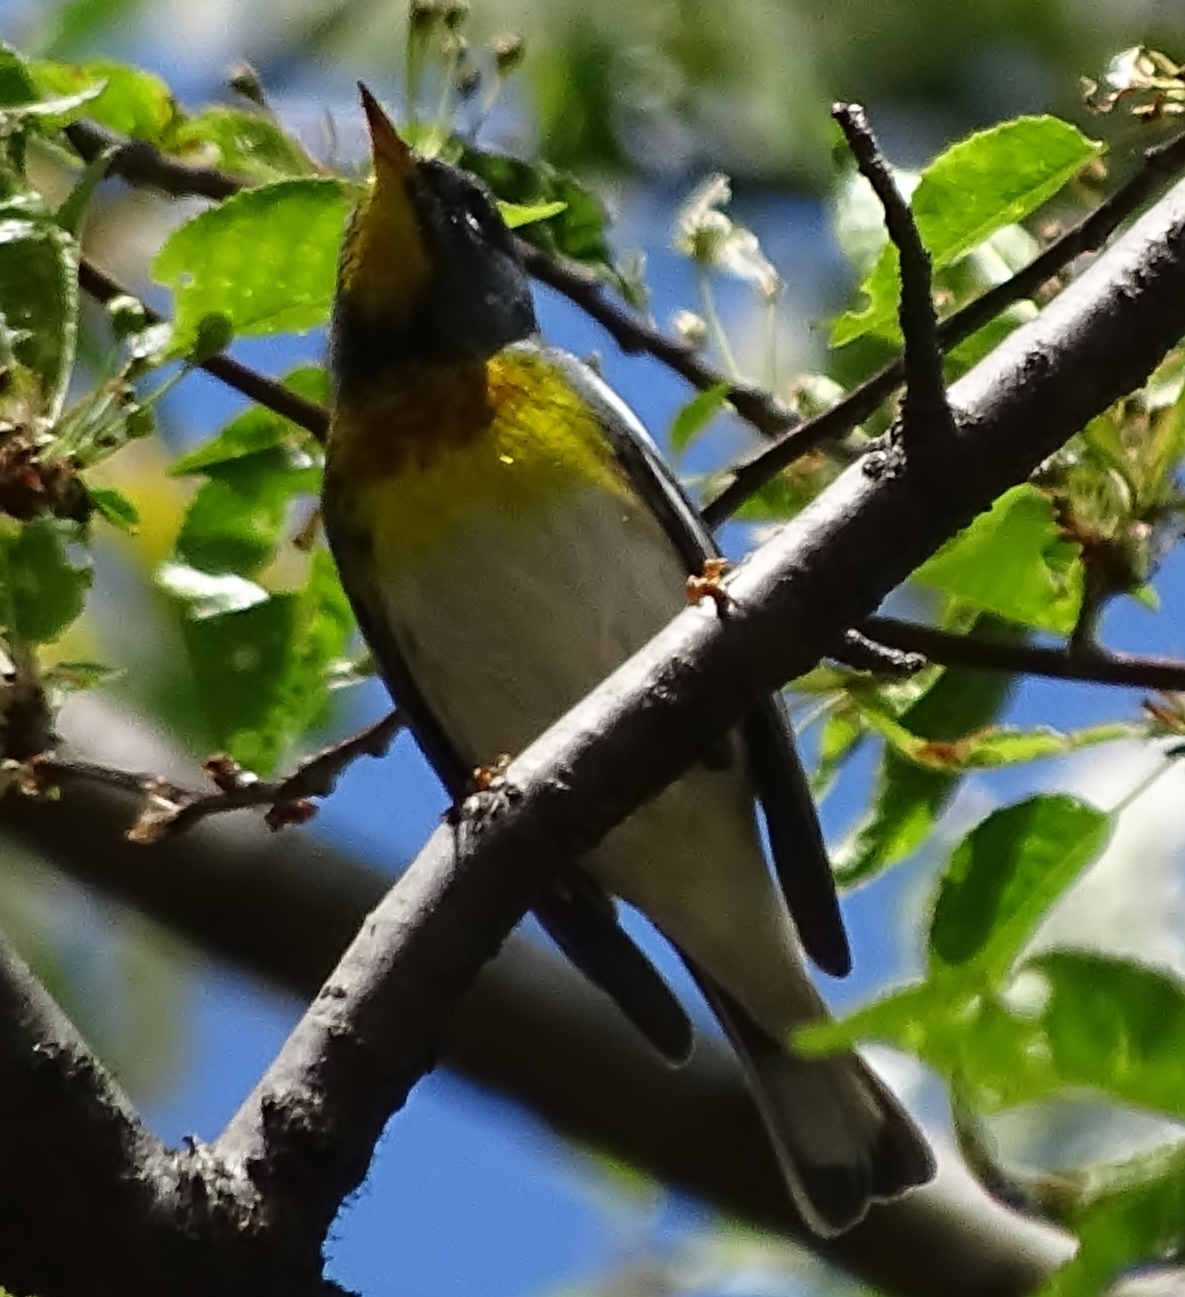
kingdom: Animalia
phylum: Chordata
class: Aves
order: Passeriformes
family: Parulidae
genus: Setophaga
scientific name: Setophaga americana
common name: Northern parula
